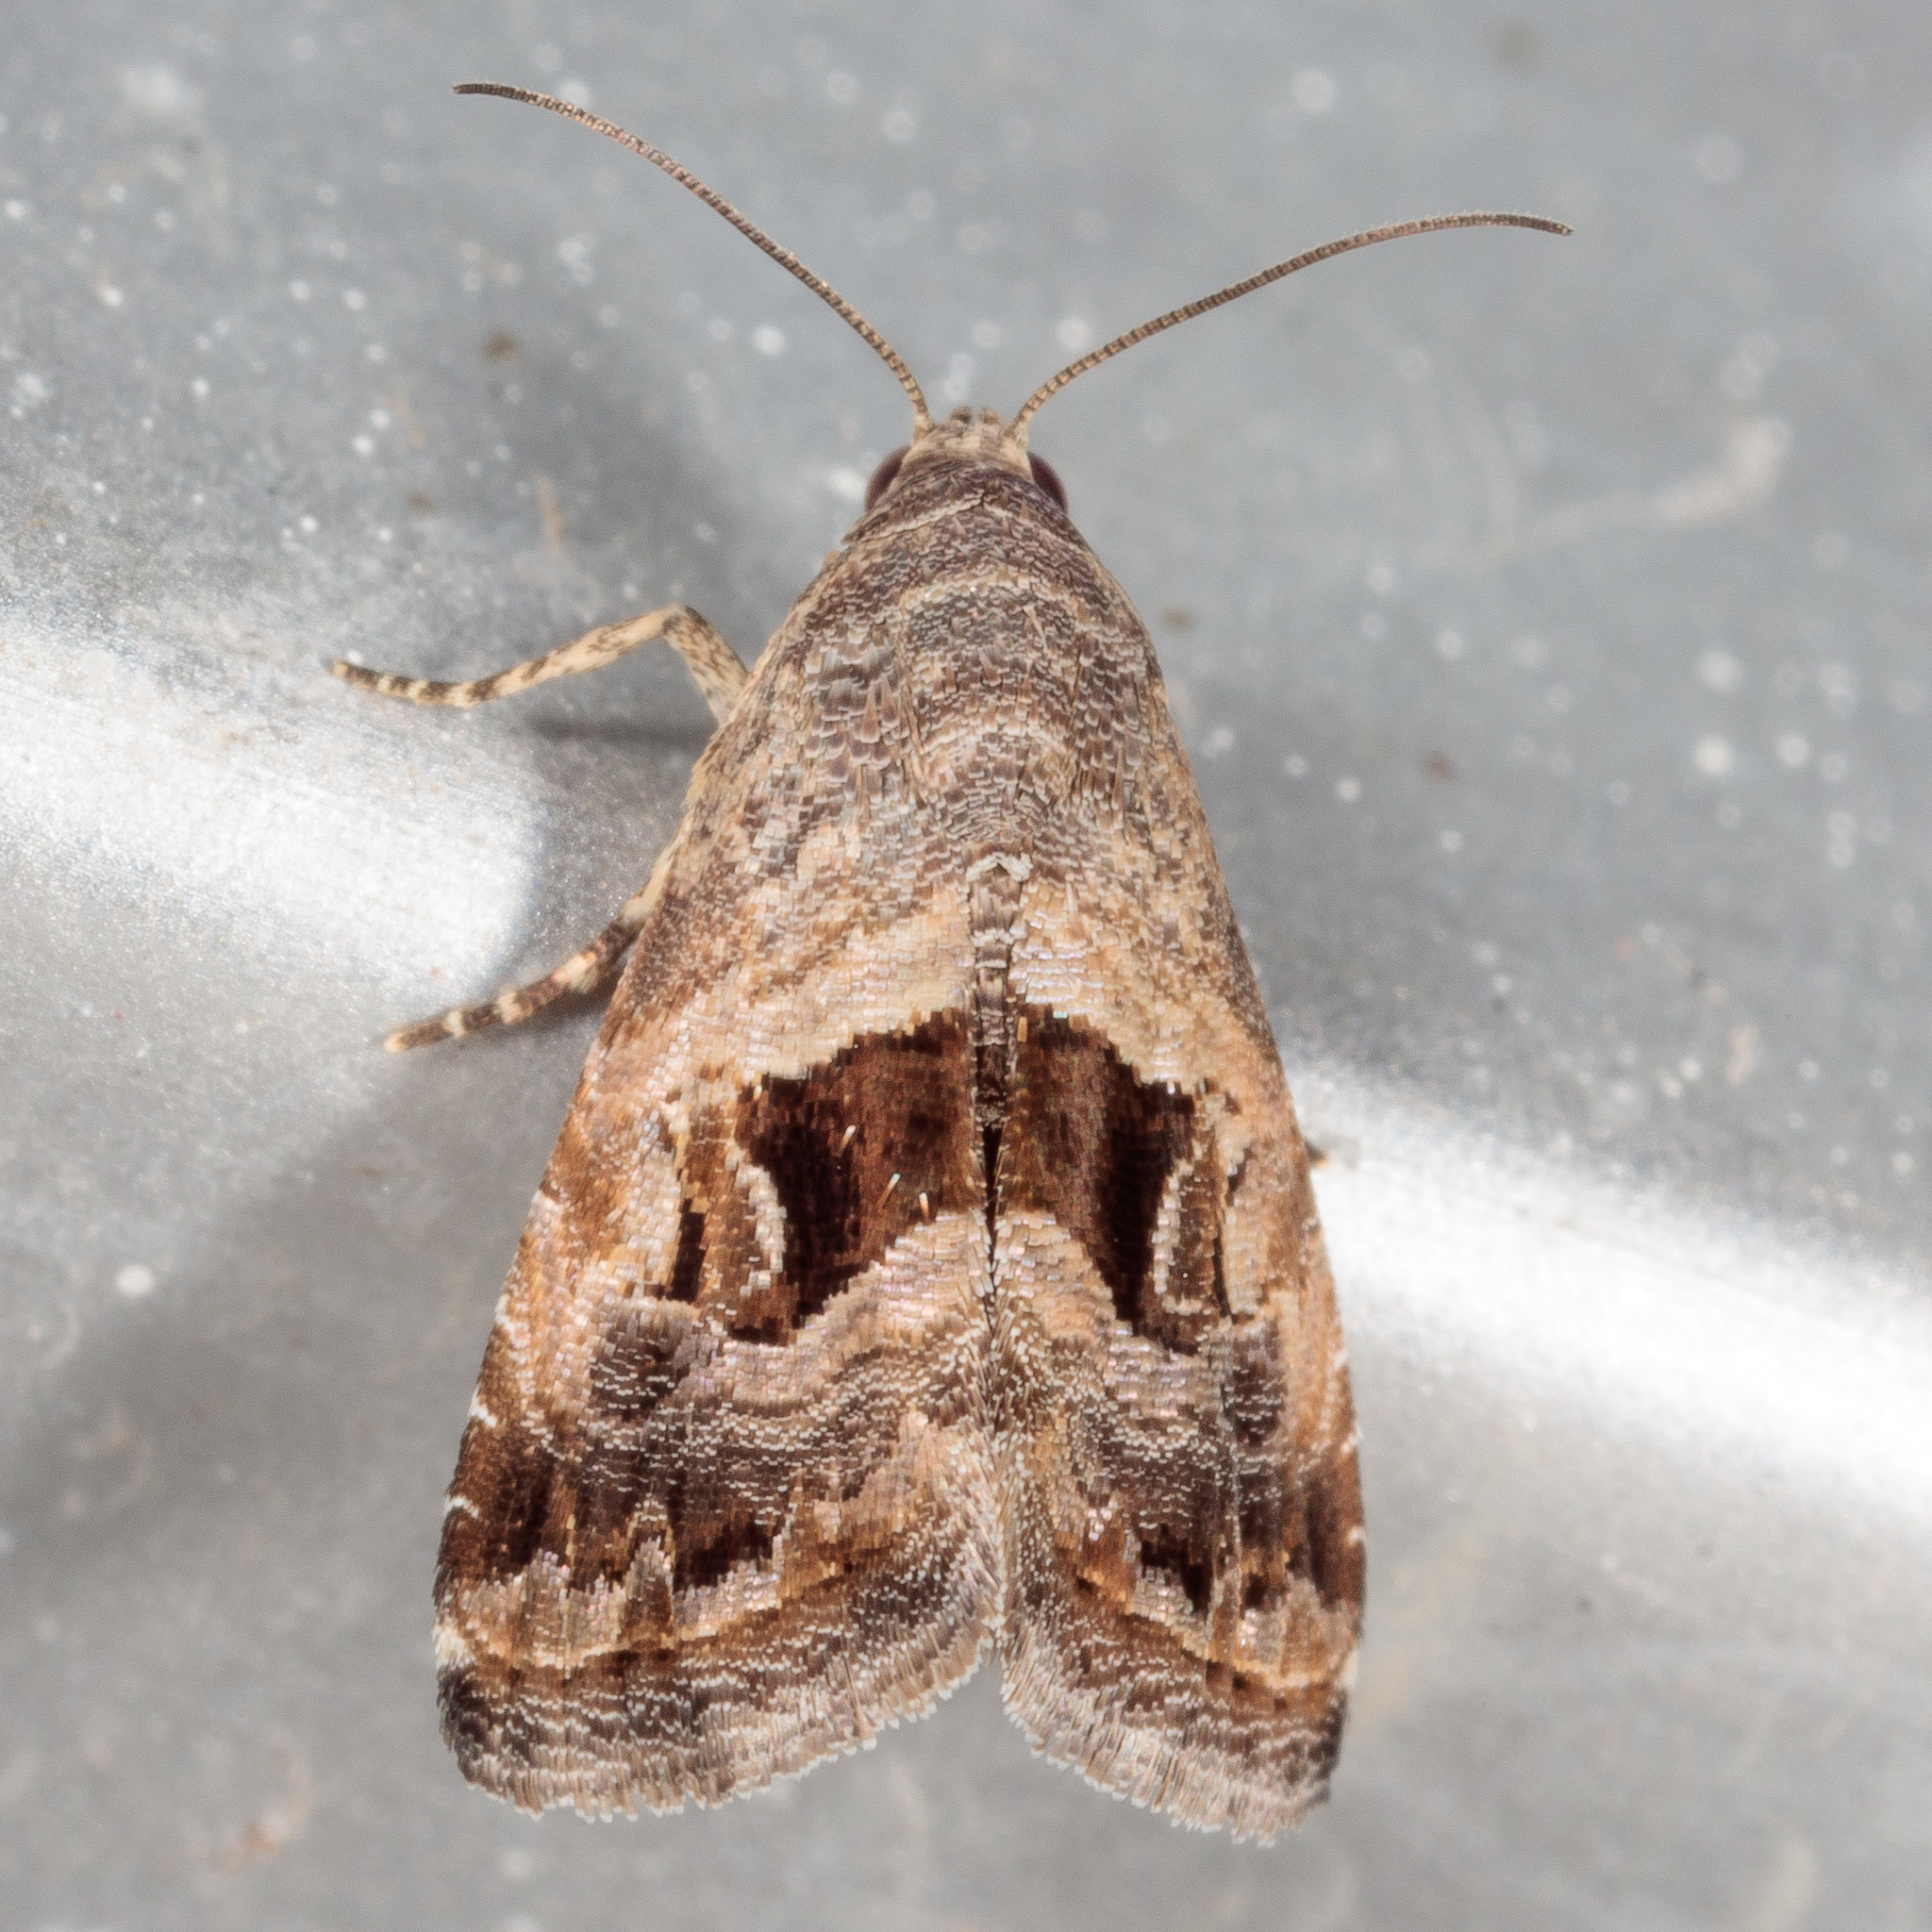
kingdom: Animalia
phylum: Arthropoda
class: Insecta
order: Lepidoptera
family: Noctuidae
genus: Tripudia
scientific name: Tripudia quadrifera
